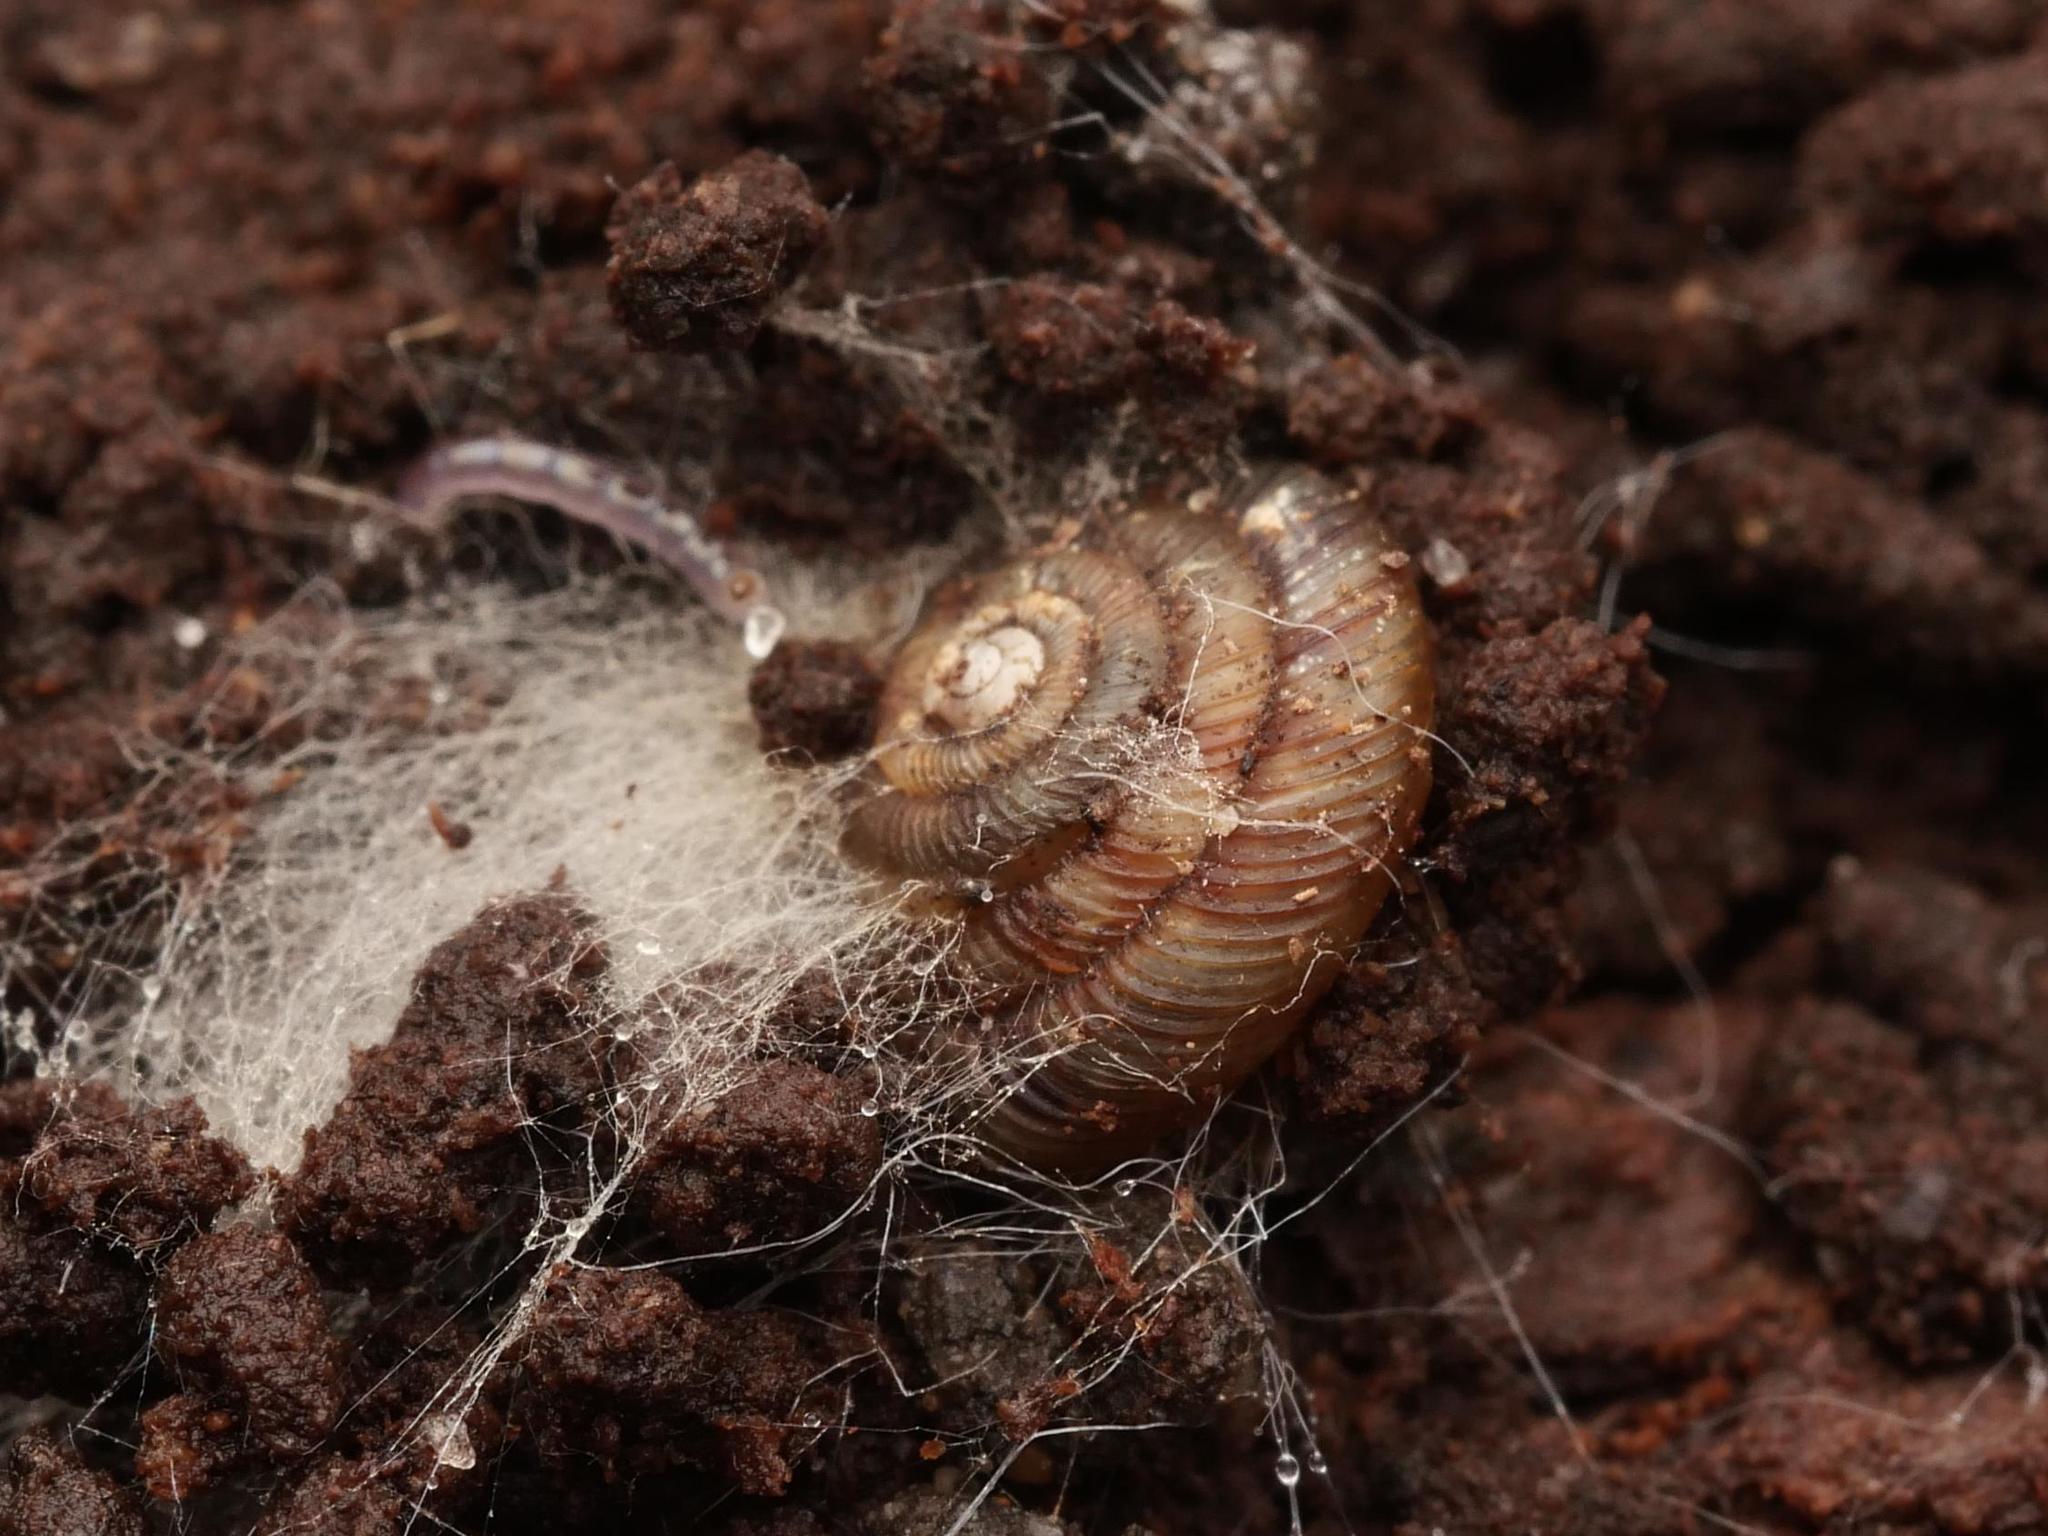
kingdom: Animalia
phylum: Mollusca
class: Gastropoda
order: Stylommatophora
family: Discidae
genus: Discus
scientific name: Discus rotundatus
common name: Rounded snail
